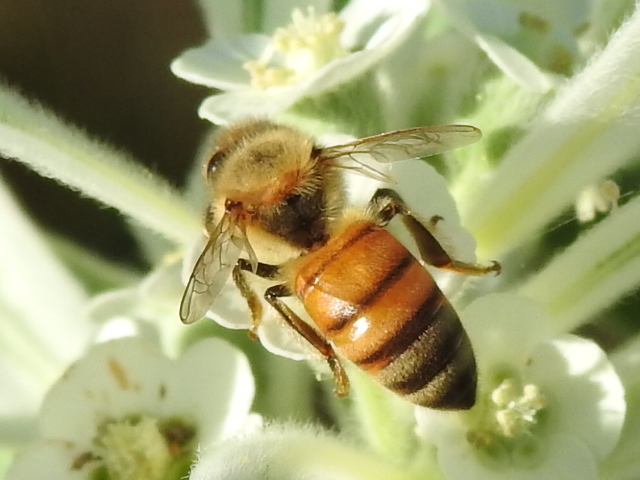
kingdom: Animalia
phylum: Arthropoda
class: Insecta
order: Hymenoptera
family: Apidae
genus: Apis
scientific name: Apis mellifera
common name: Honey bee
